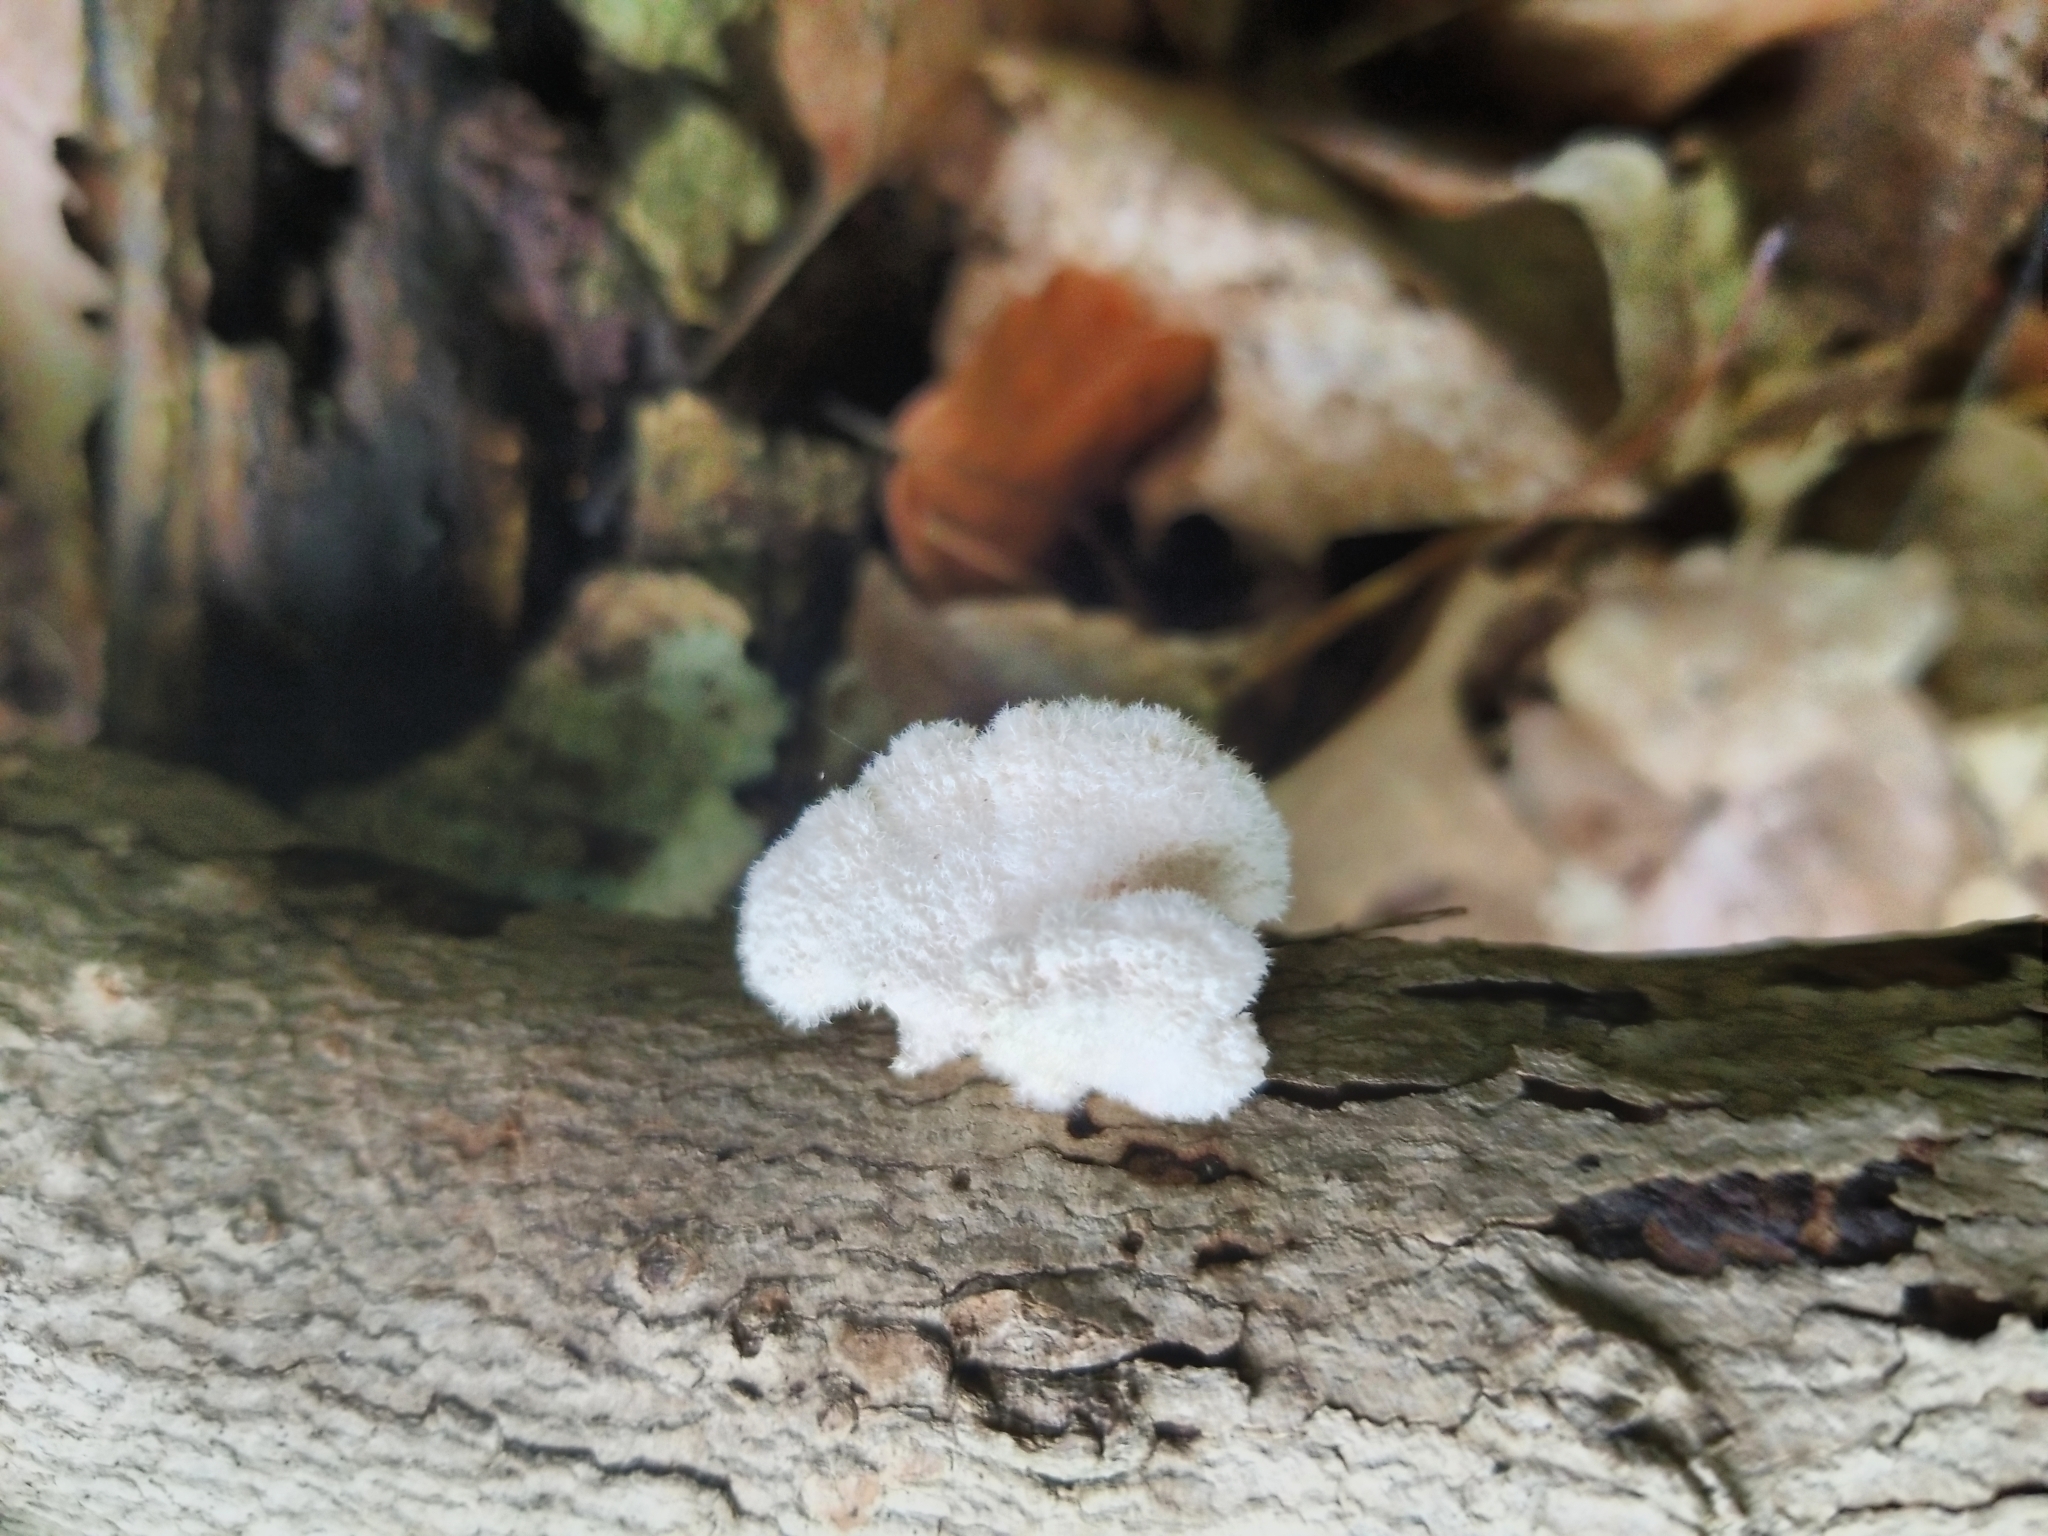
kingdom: Fungi
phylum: Basidiomycota
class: Agaricomycetes
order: Agaricales
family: Schizophyllaceae
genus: Schizophyllum
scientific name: Schizophyllum commune
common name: Common porecrust
